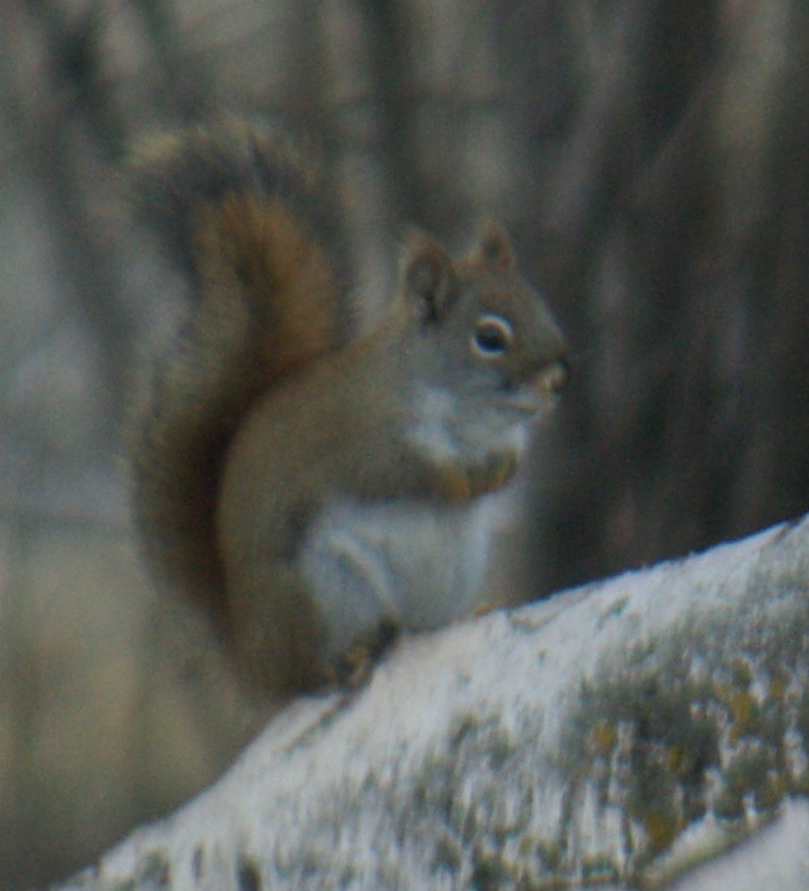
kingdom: Animalia
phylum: Chordata
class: Mammalia
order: Rodentia
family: Sciuridae
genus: Tamiasciurus
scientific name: Tamiasciurus hudsonicus
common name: Red squirrel
